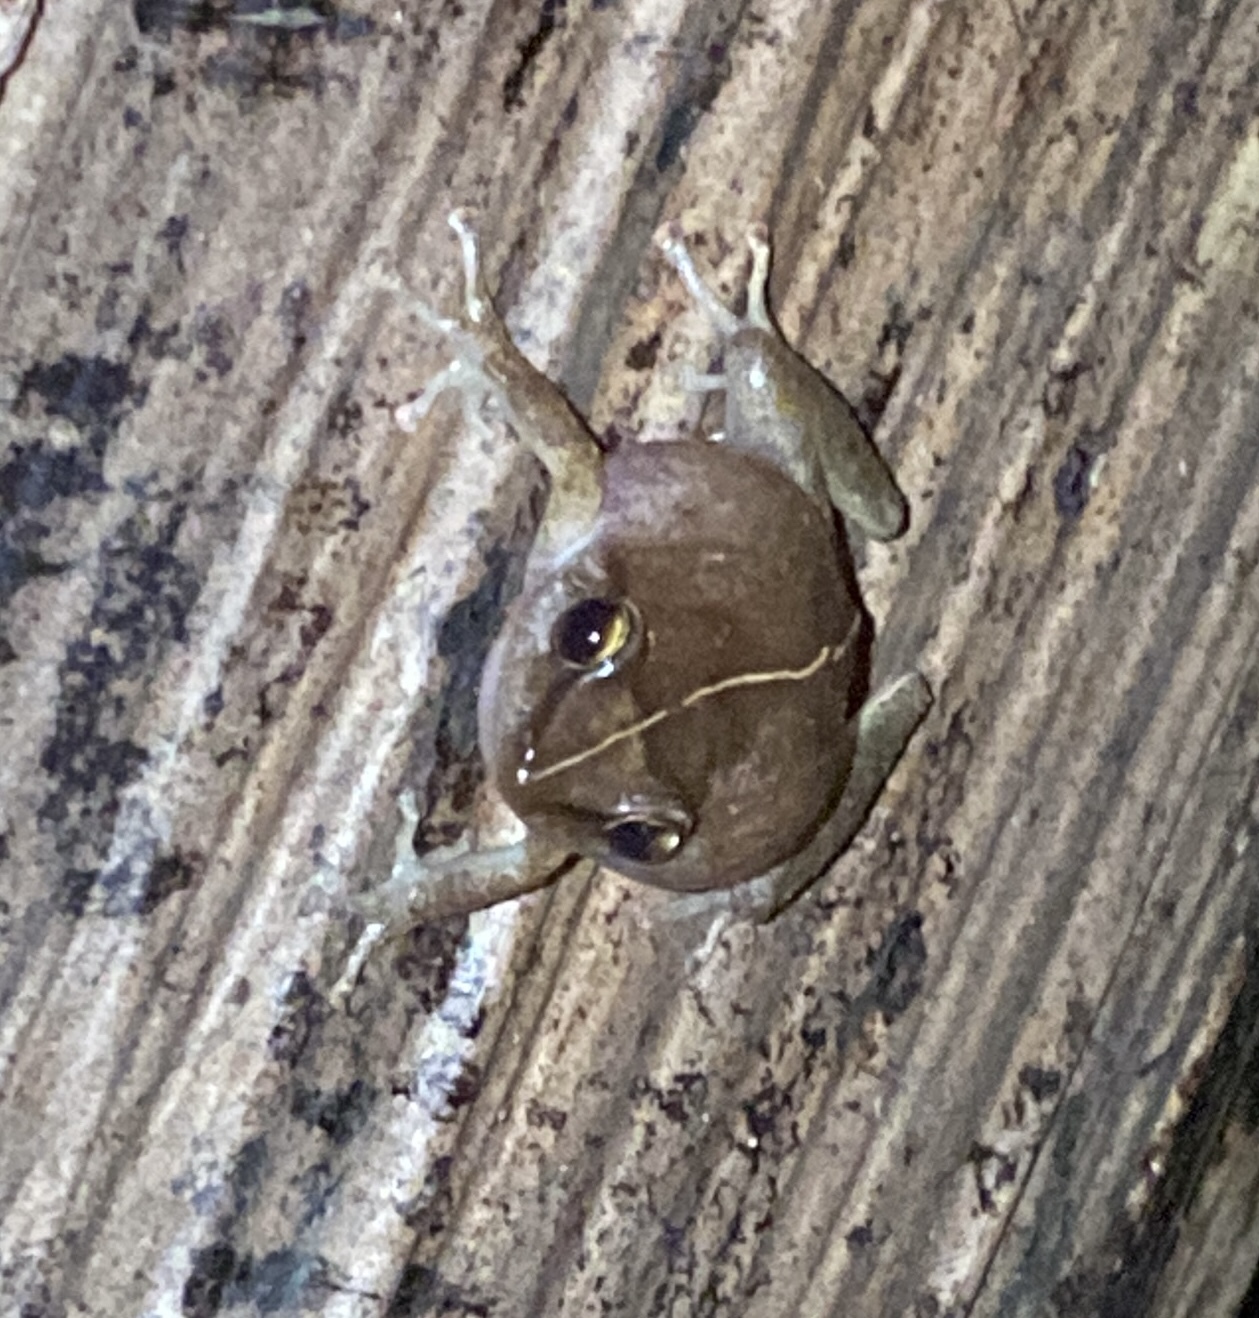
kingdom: Animalia
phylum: Chordata
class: Amphibia
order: Anura
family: Eleutherodactylidae
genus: Eleutherodactylus
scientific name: Eleutherodactylus coqui
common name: Coqui frog
